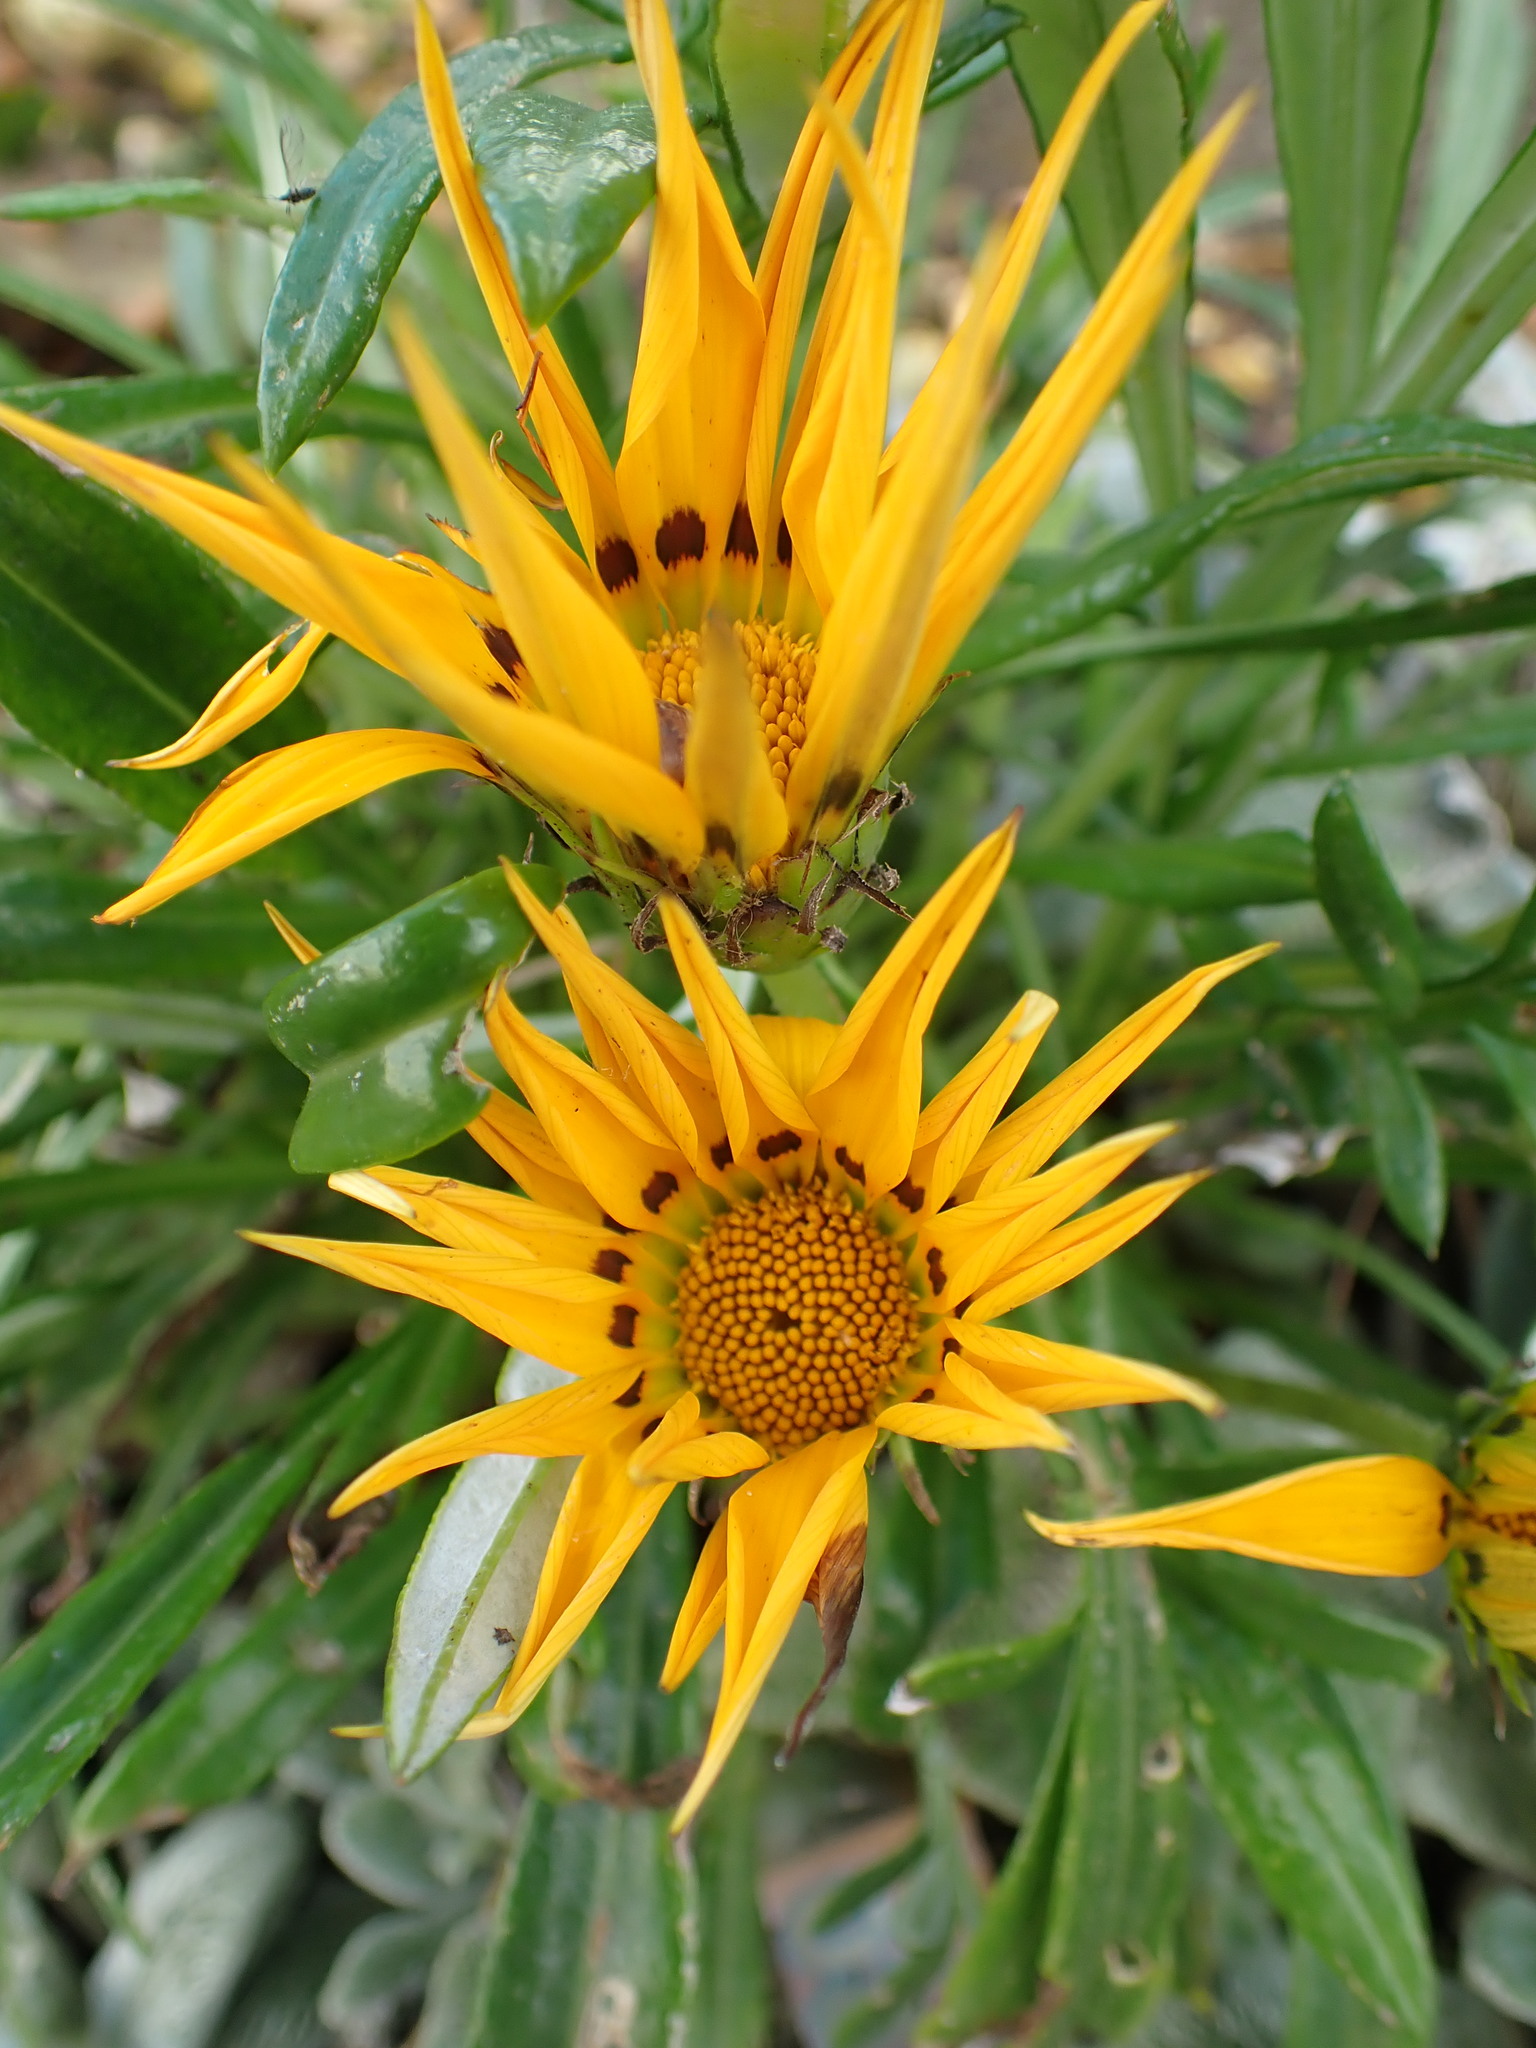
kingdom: Plantae
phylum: Tracheophyta
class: Magnoliopsida
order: Asterales
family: Asteraceae
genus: Gazania
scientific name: Gazania rigens
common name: Treasureflower
